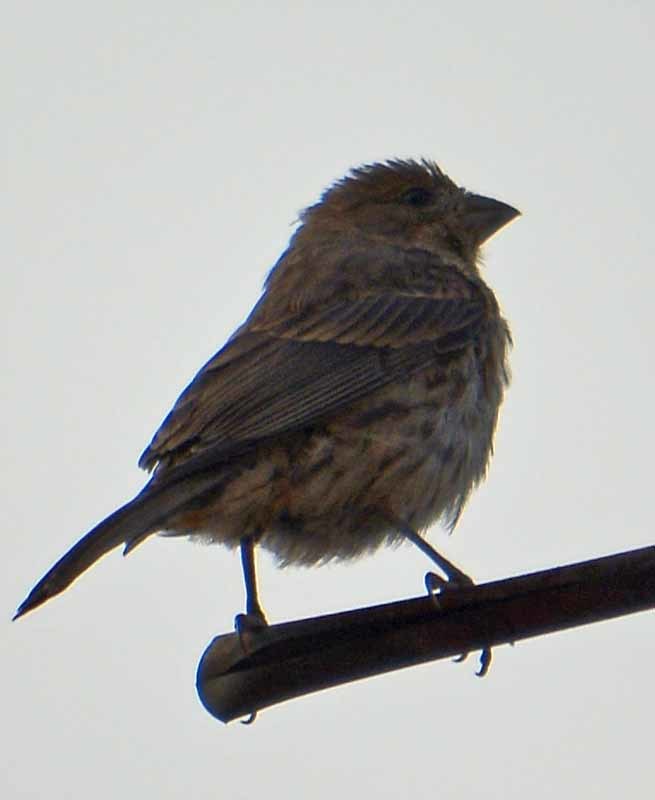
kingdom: Animalia
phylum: Chordata
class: Aves
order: Passeriformes
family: Fringillidae
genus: Haemorhous
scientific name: Haemorhous mexicanus
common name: House finch
